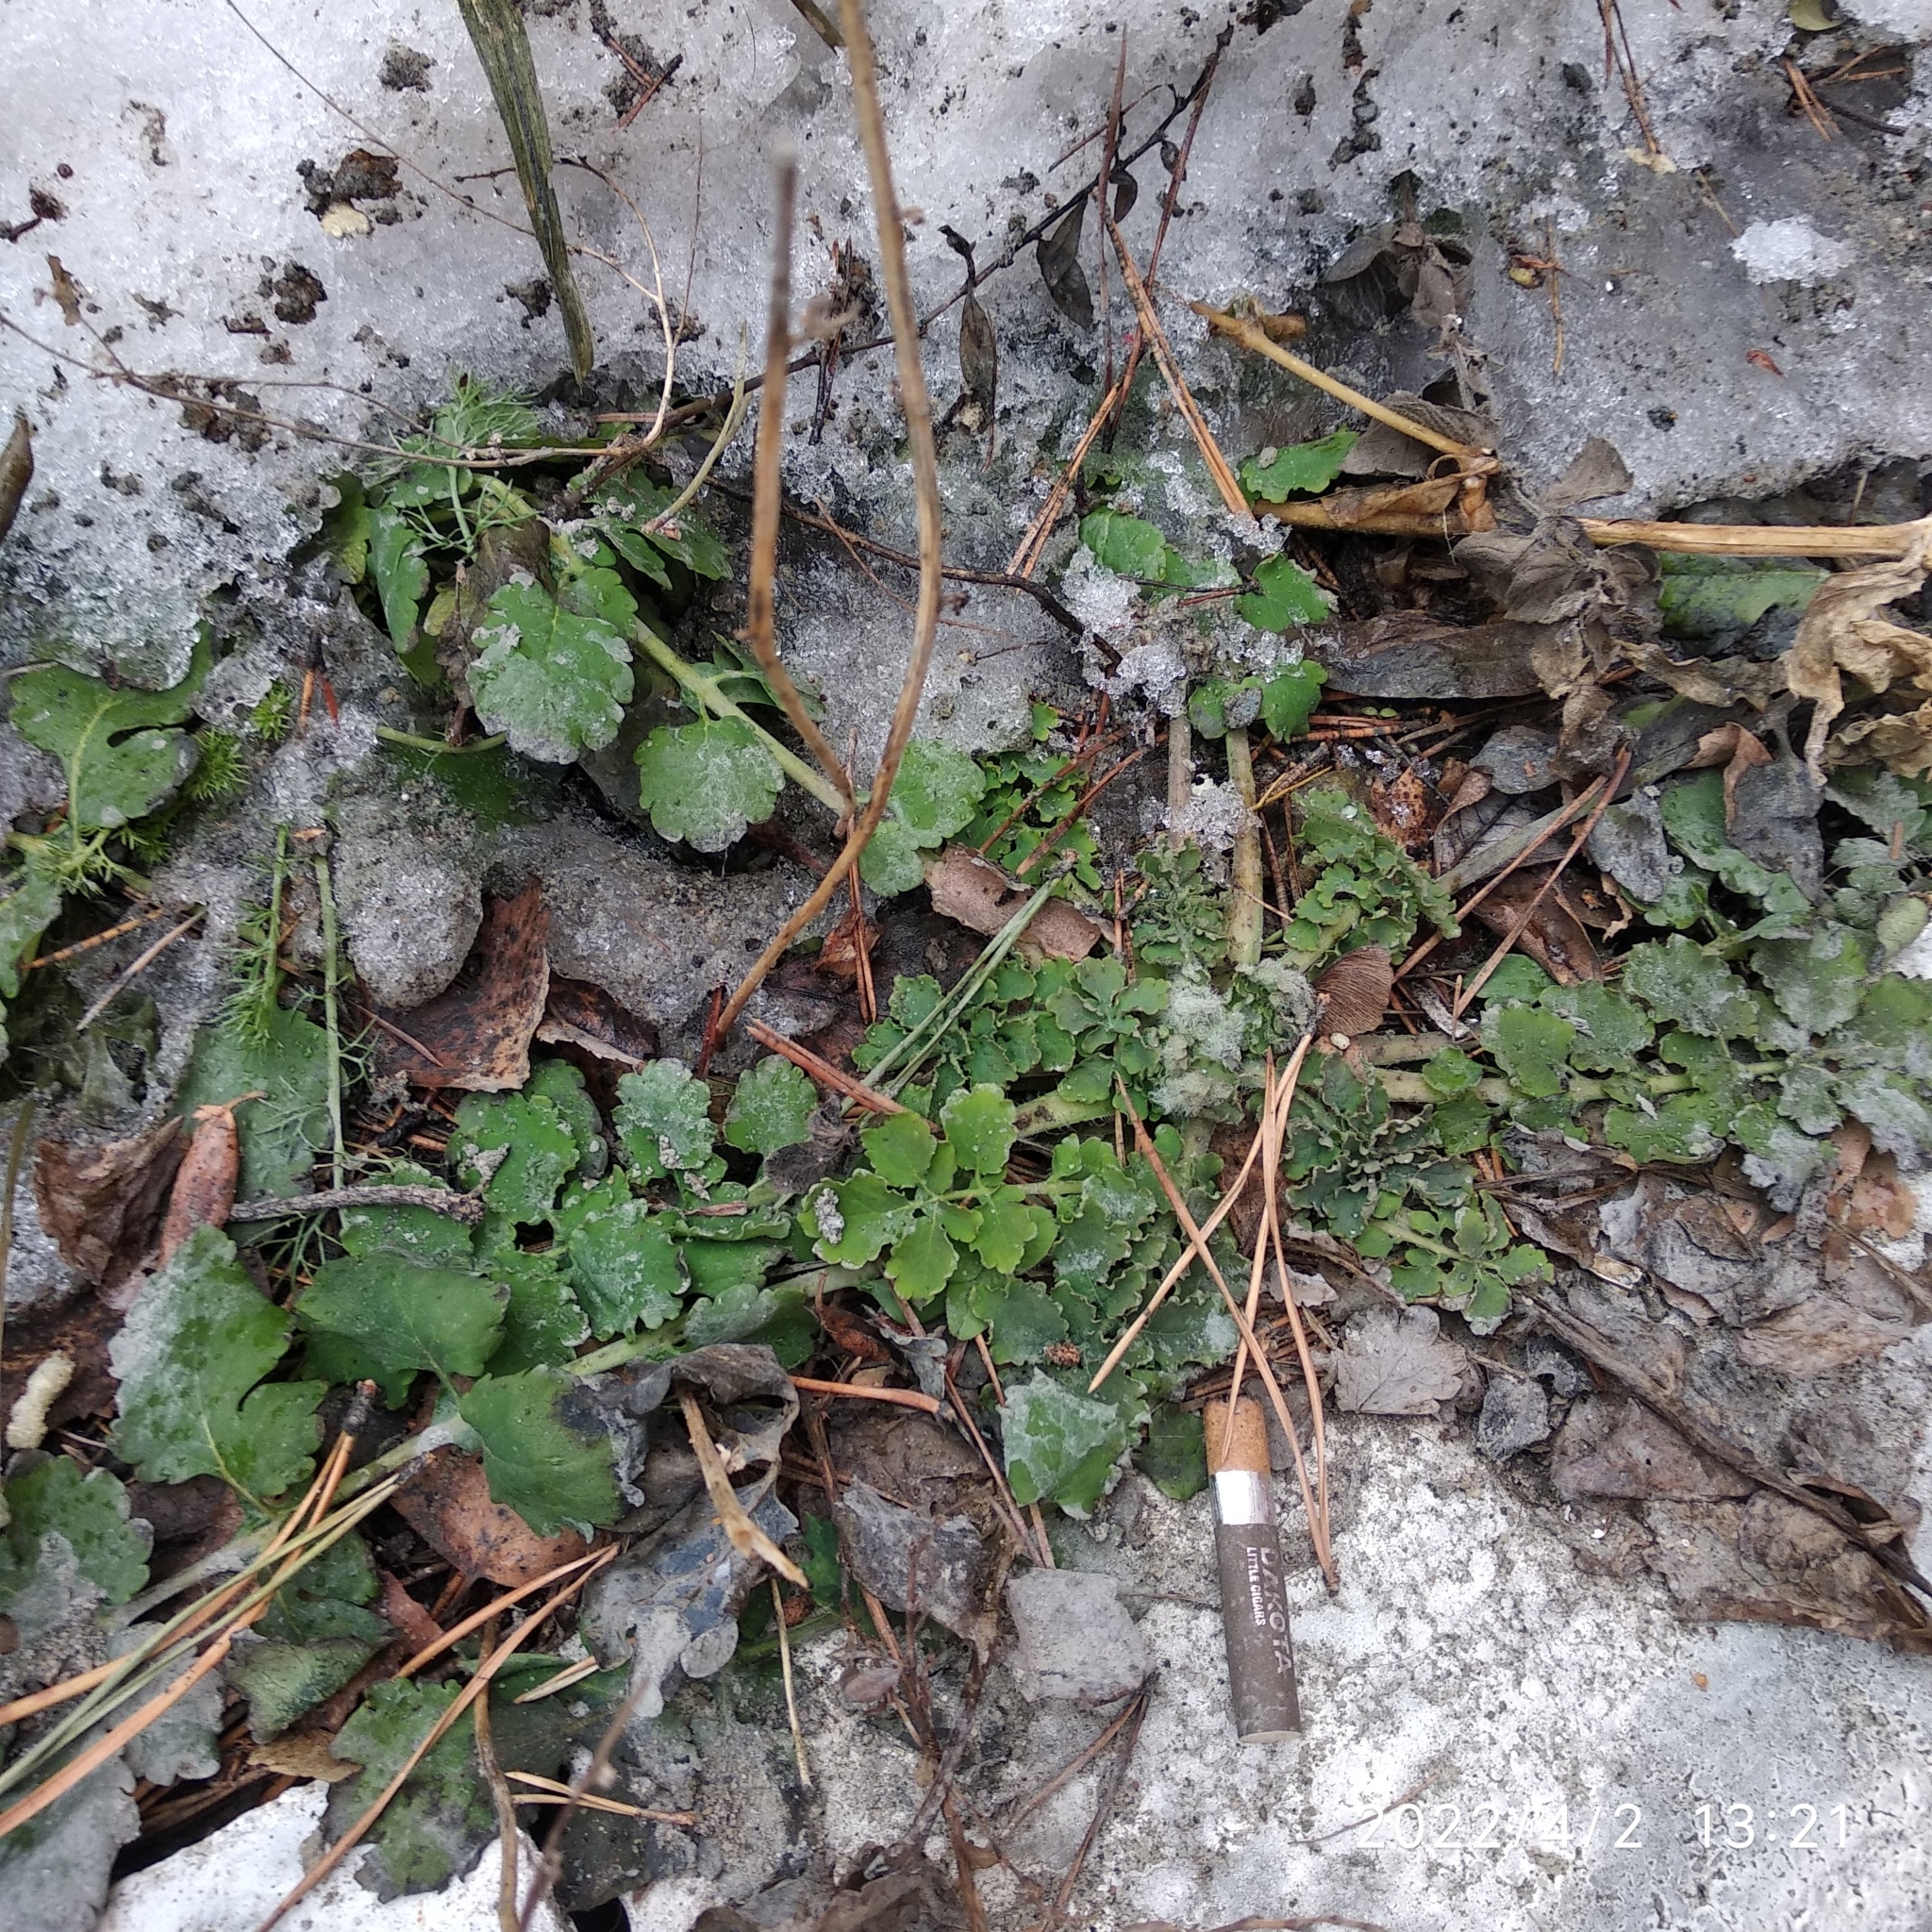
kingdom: Plantae
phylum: Tracheophyta
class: Magnoliopsida
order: Ranunculales
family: Papaveraceae
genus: Chelidonium
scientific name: Chelidonium majus
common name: Greater celandine
